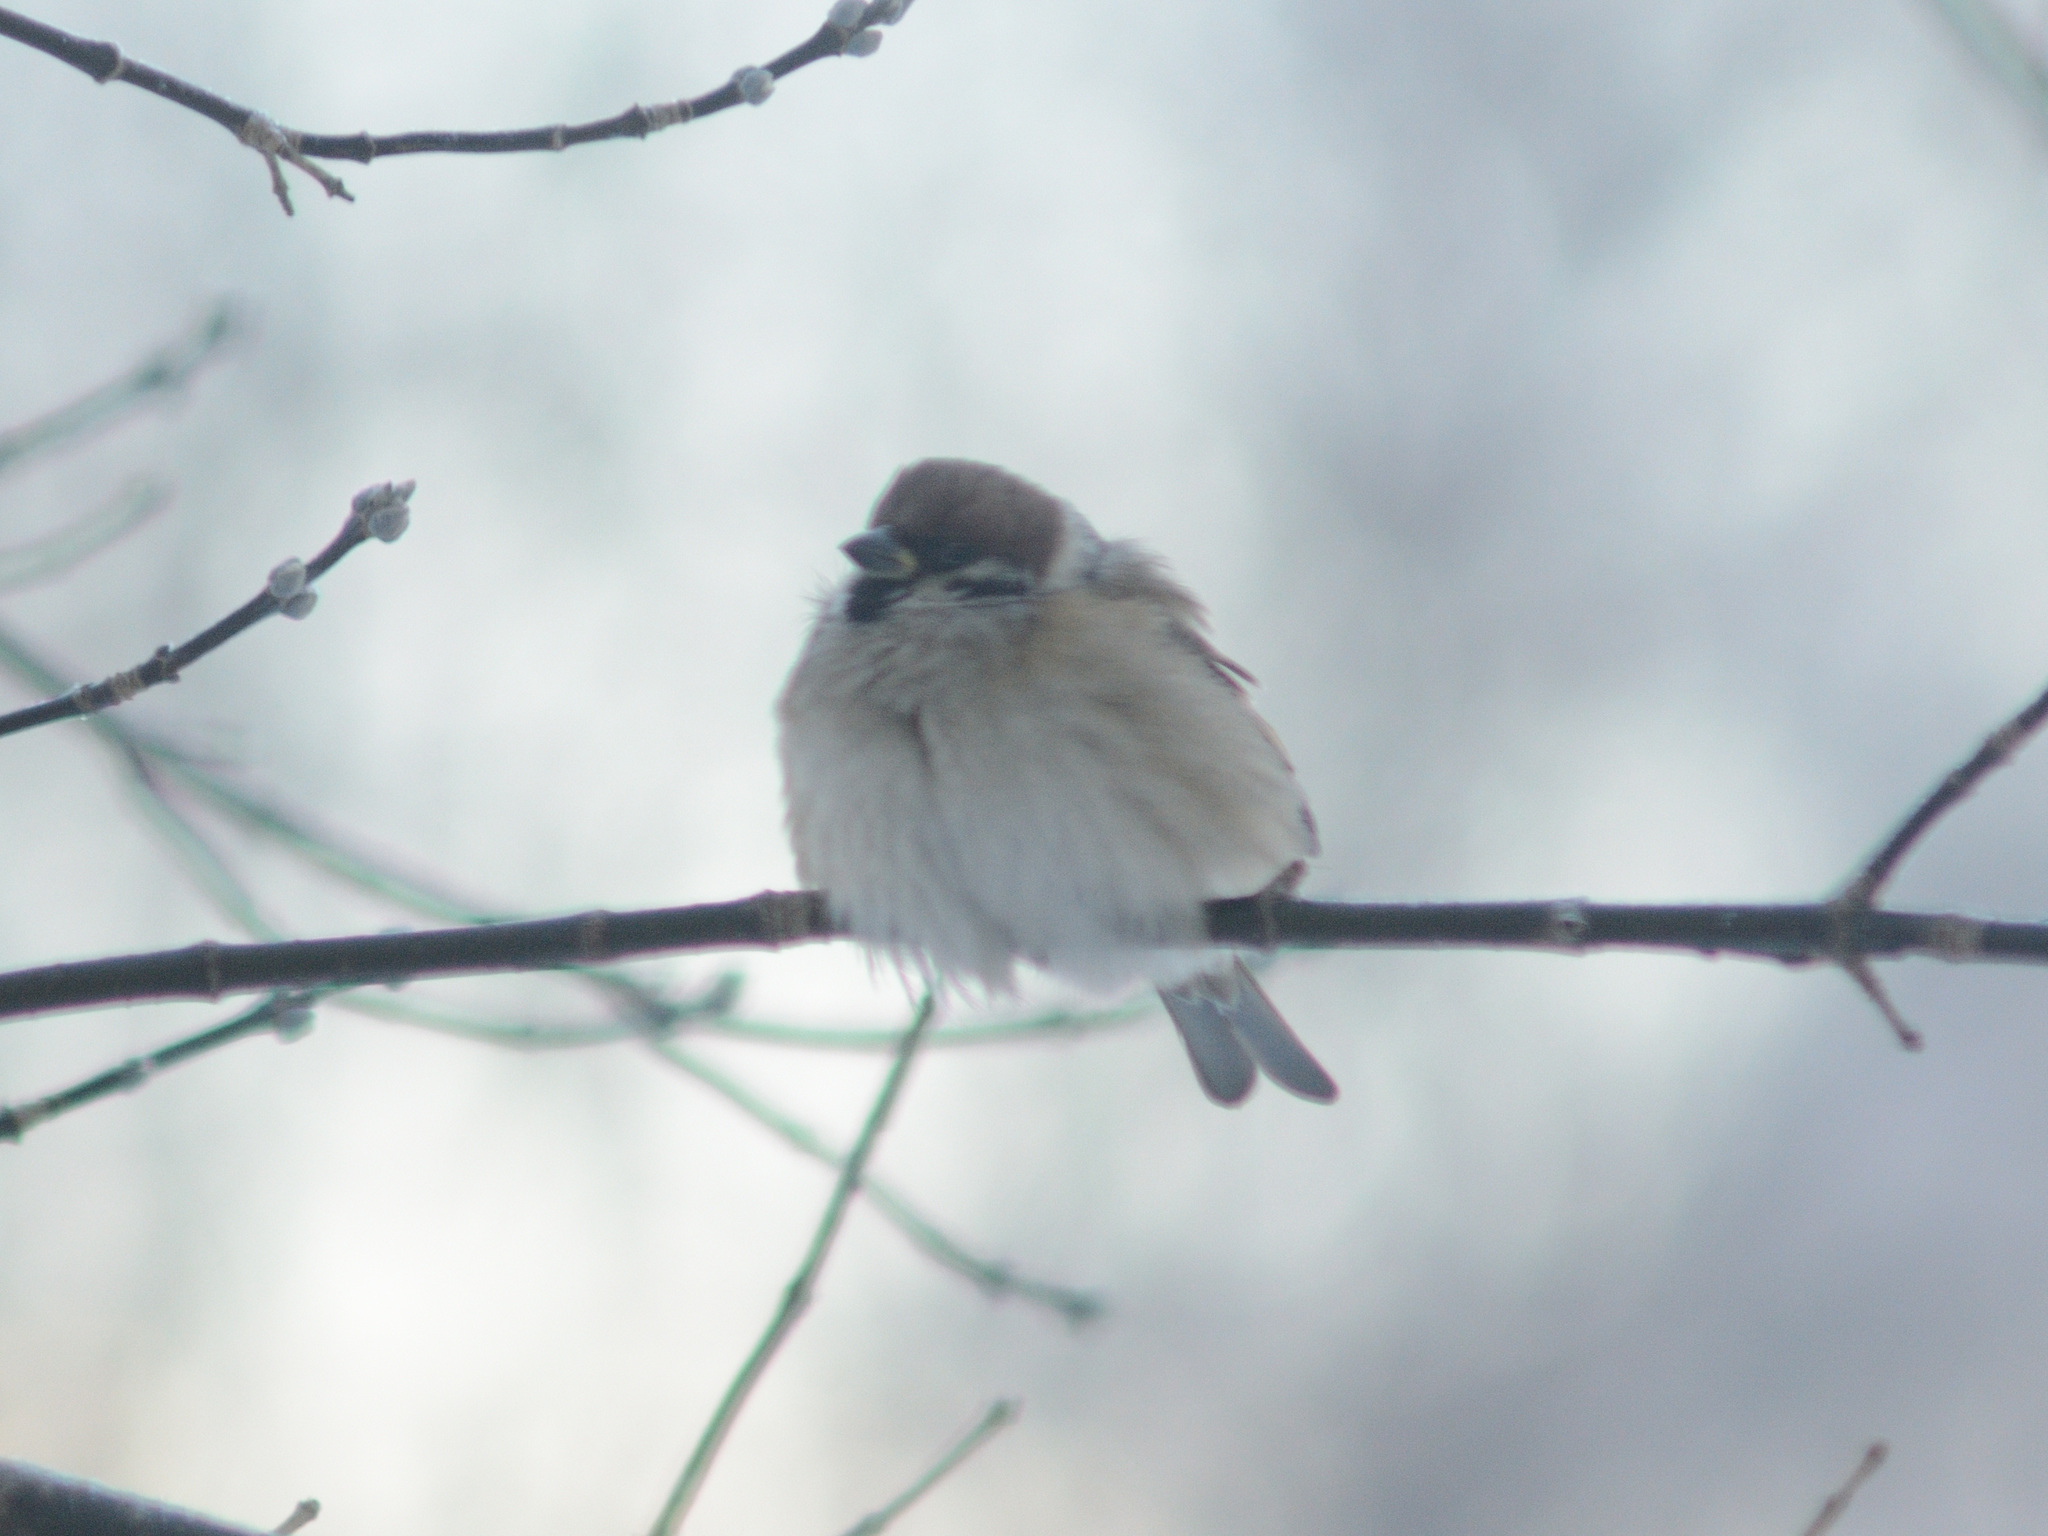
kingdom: Animalia
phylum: Chordata
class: Aves
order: Passeriformes
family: Passeridae
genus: Passer
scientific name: Passer montanus
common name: Eurasian tree sparrow
